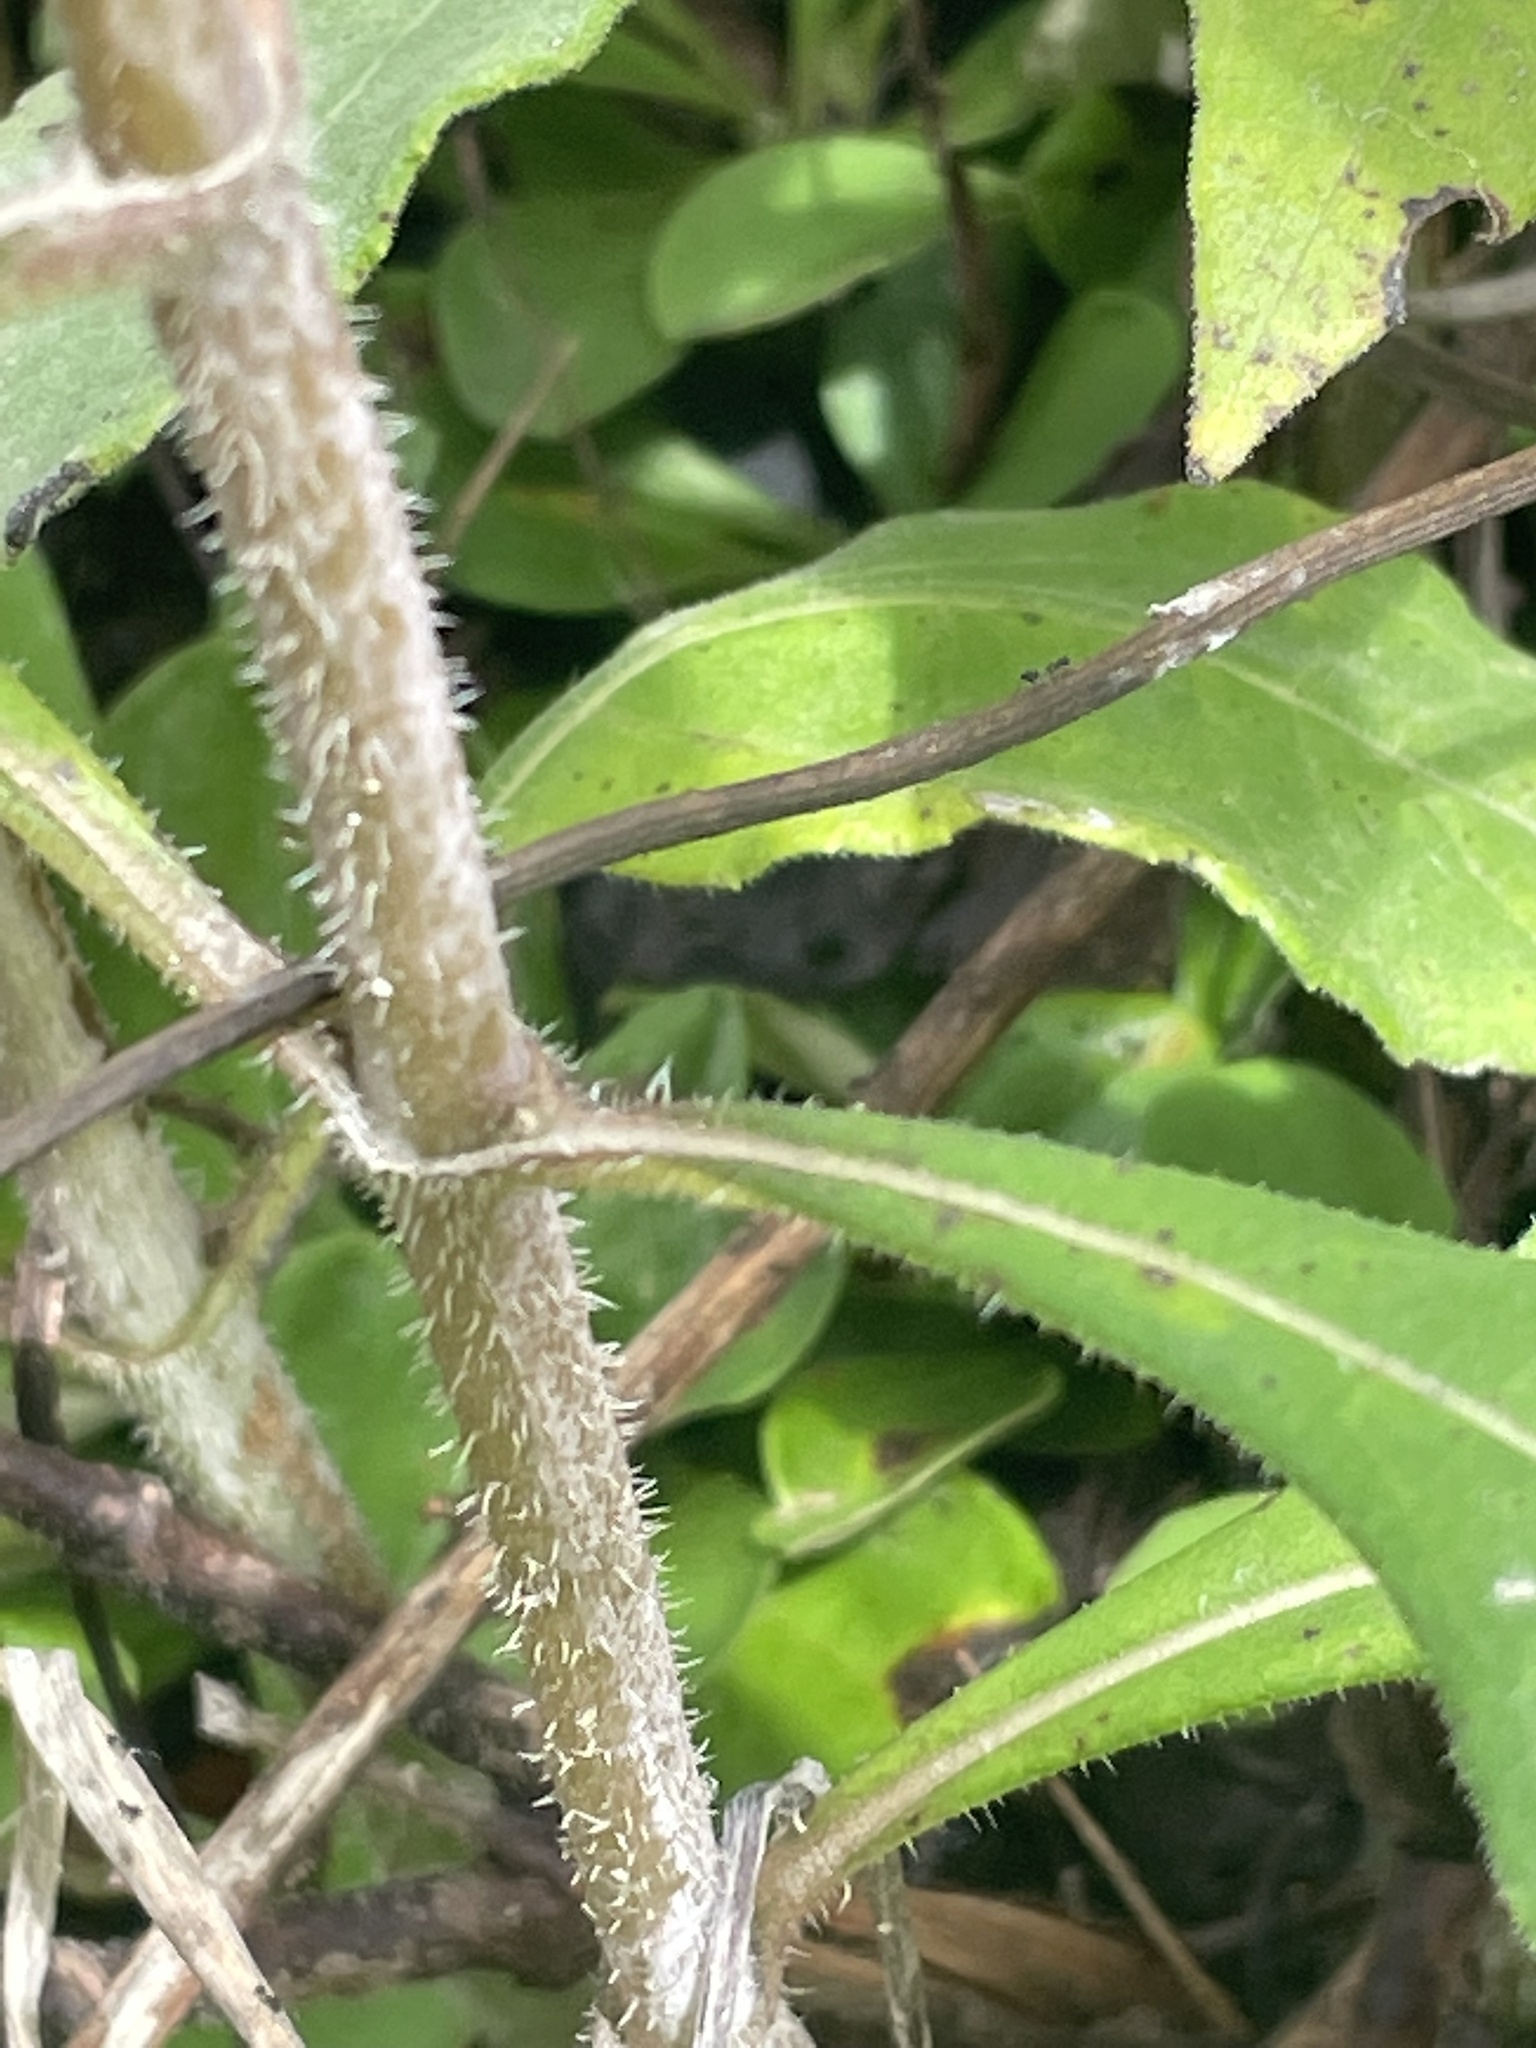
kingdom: Plantae
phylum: Tracheophyta
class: Magnoliopsida
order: Asterales
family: Asteraceae
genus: Helianthus
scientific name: Helianthus resinosus
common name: Resin-dot sunflower
